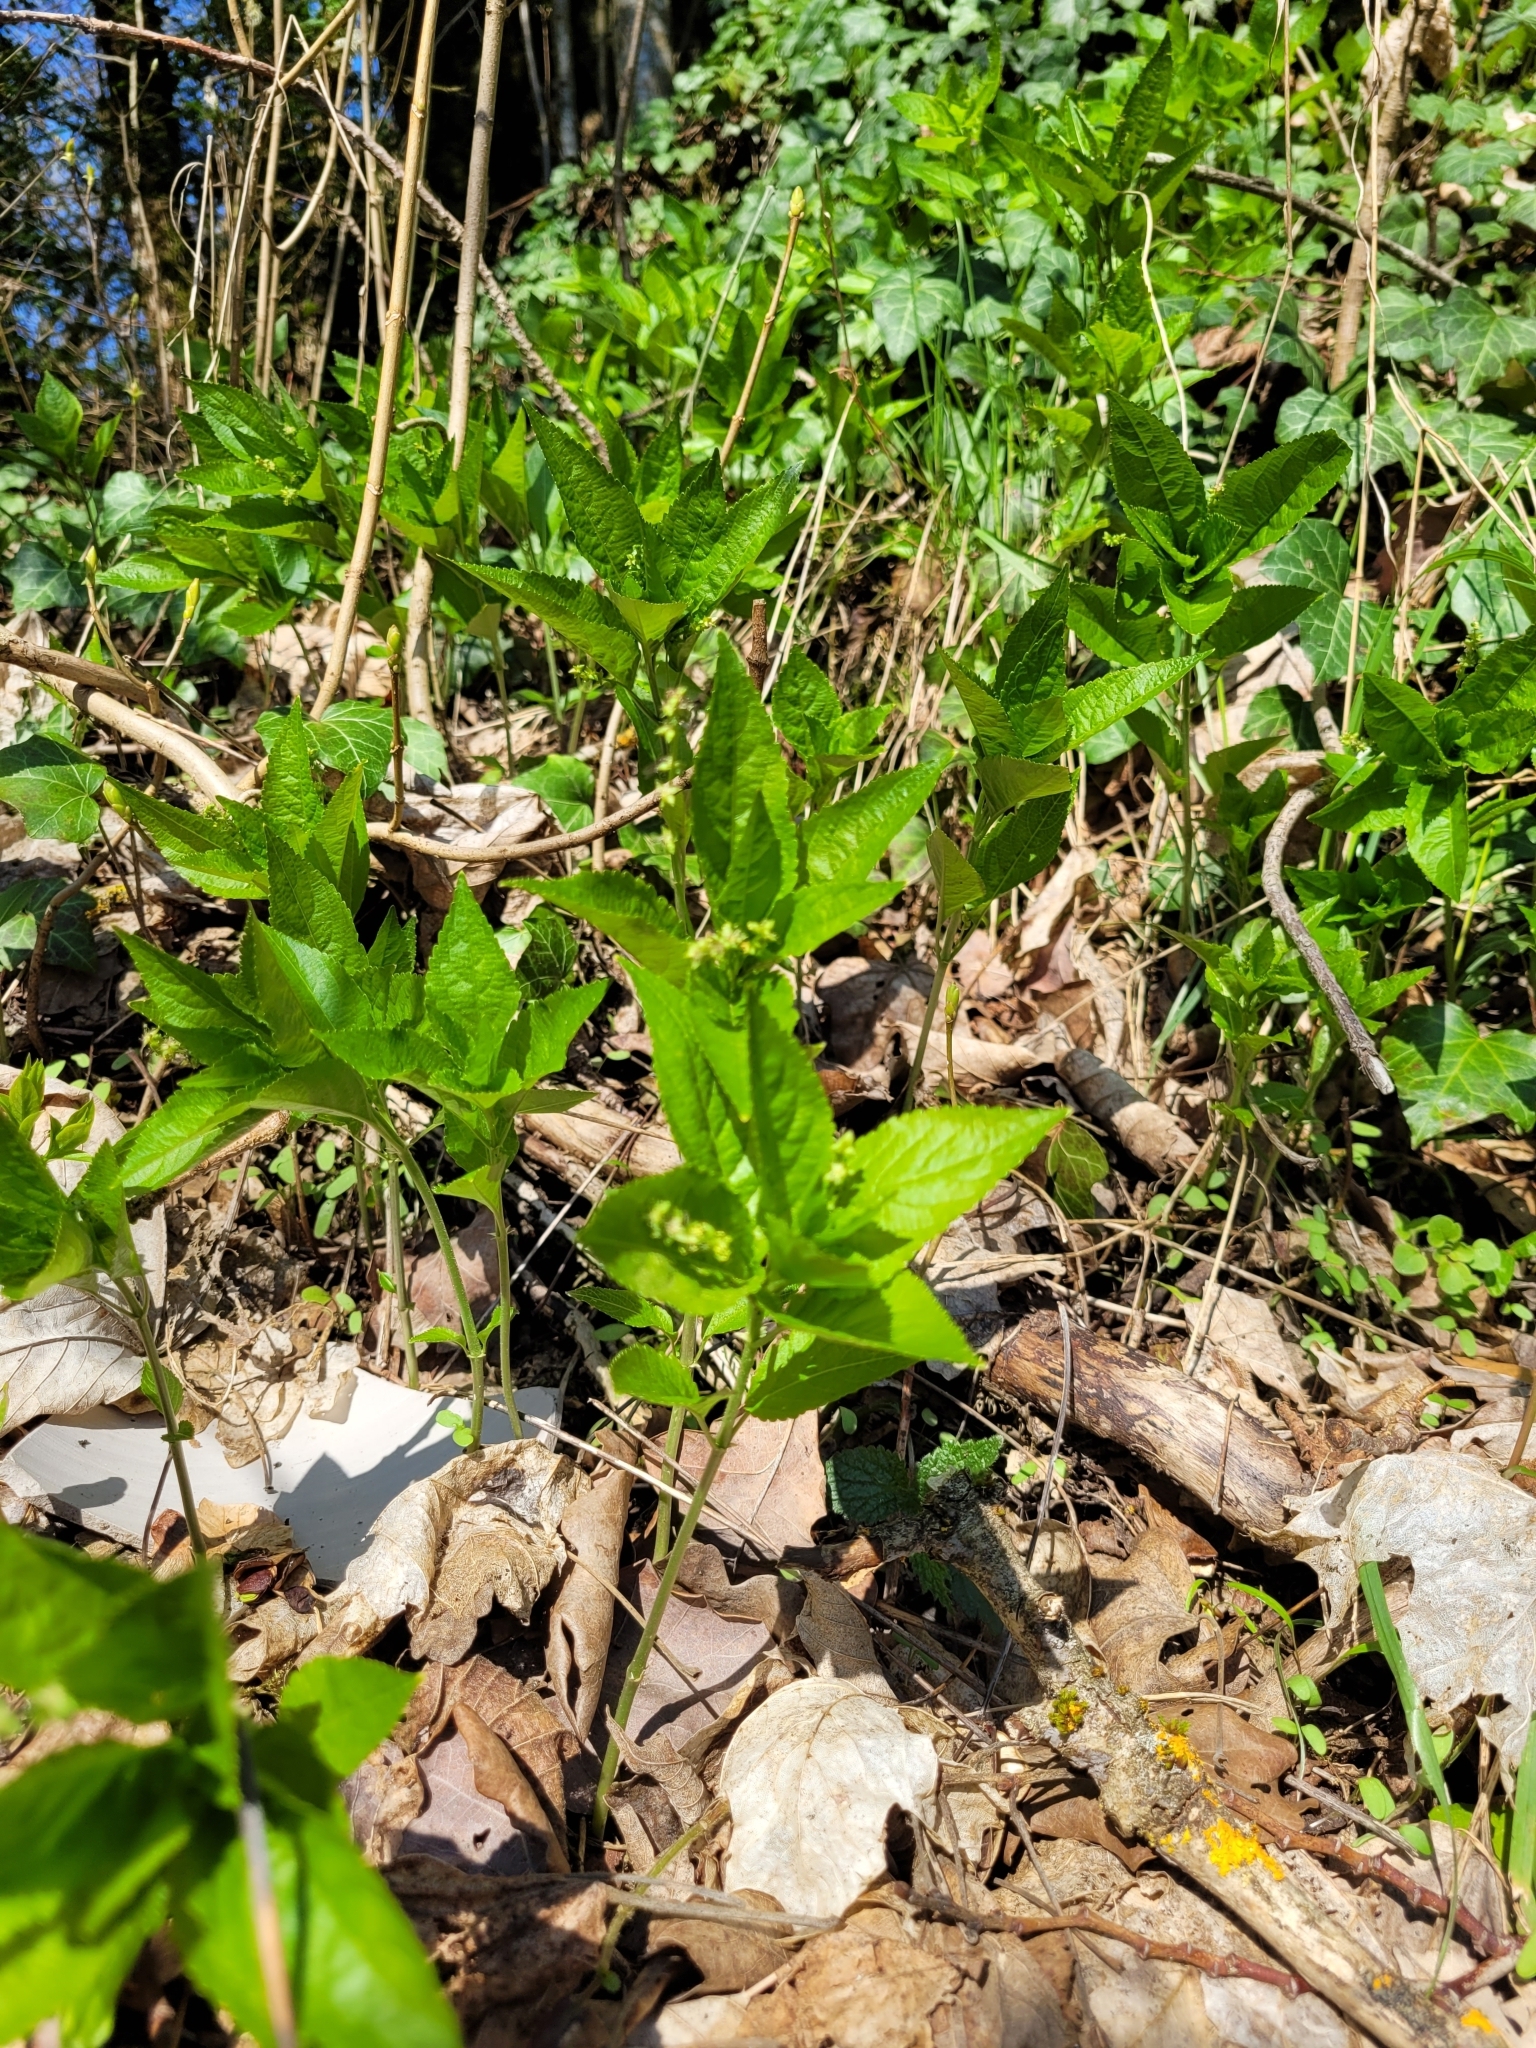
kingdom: Plantae
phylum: Tracheophyta
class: Magnoliopsida
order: Malpighiales
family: Euphorbiaceae
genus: Mercurialis
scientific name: Mercurialis perennis
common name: Dog mercury
